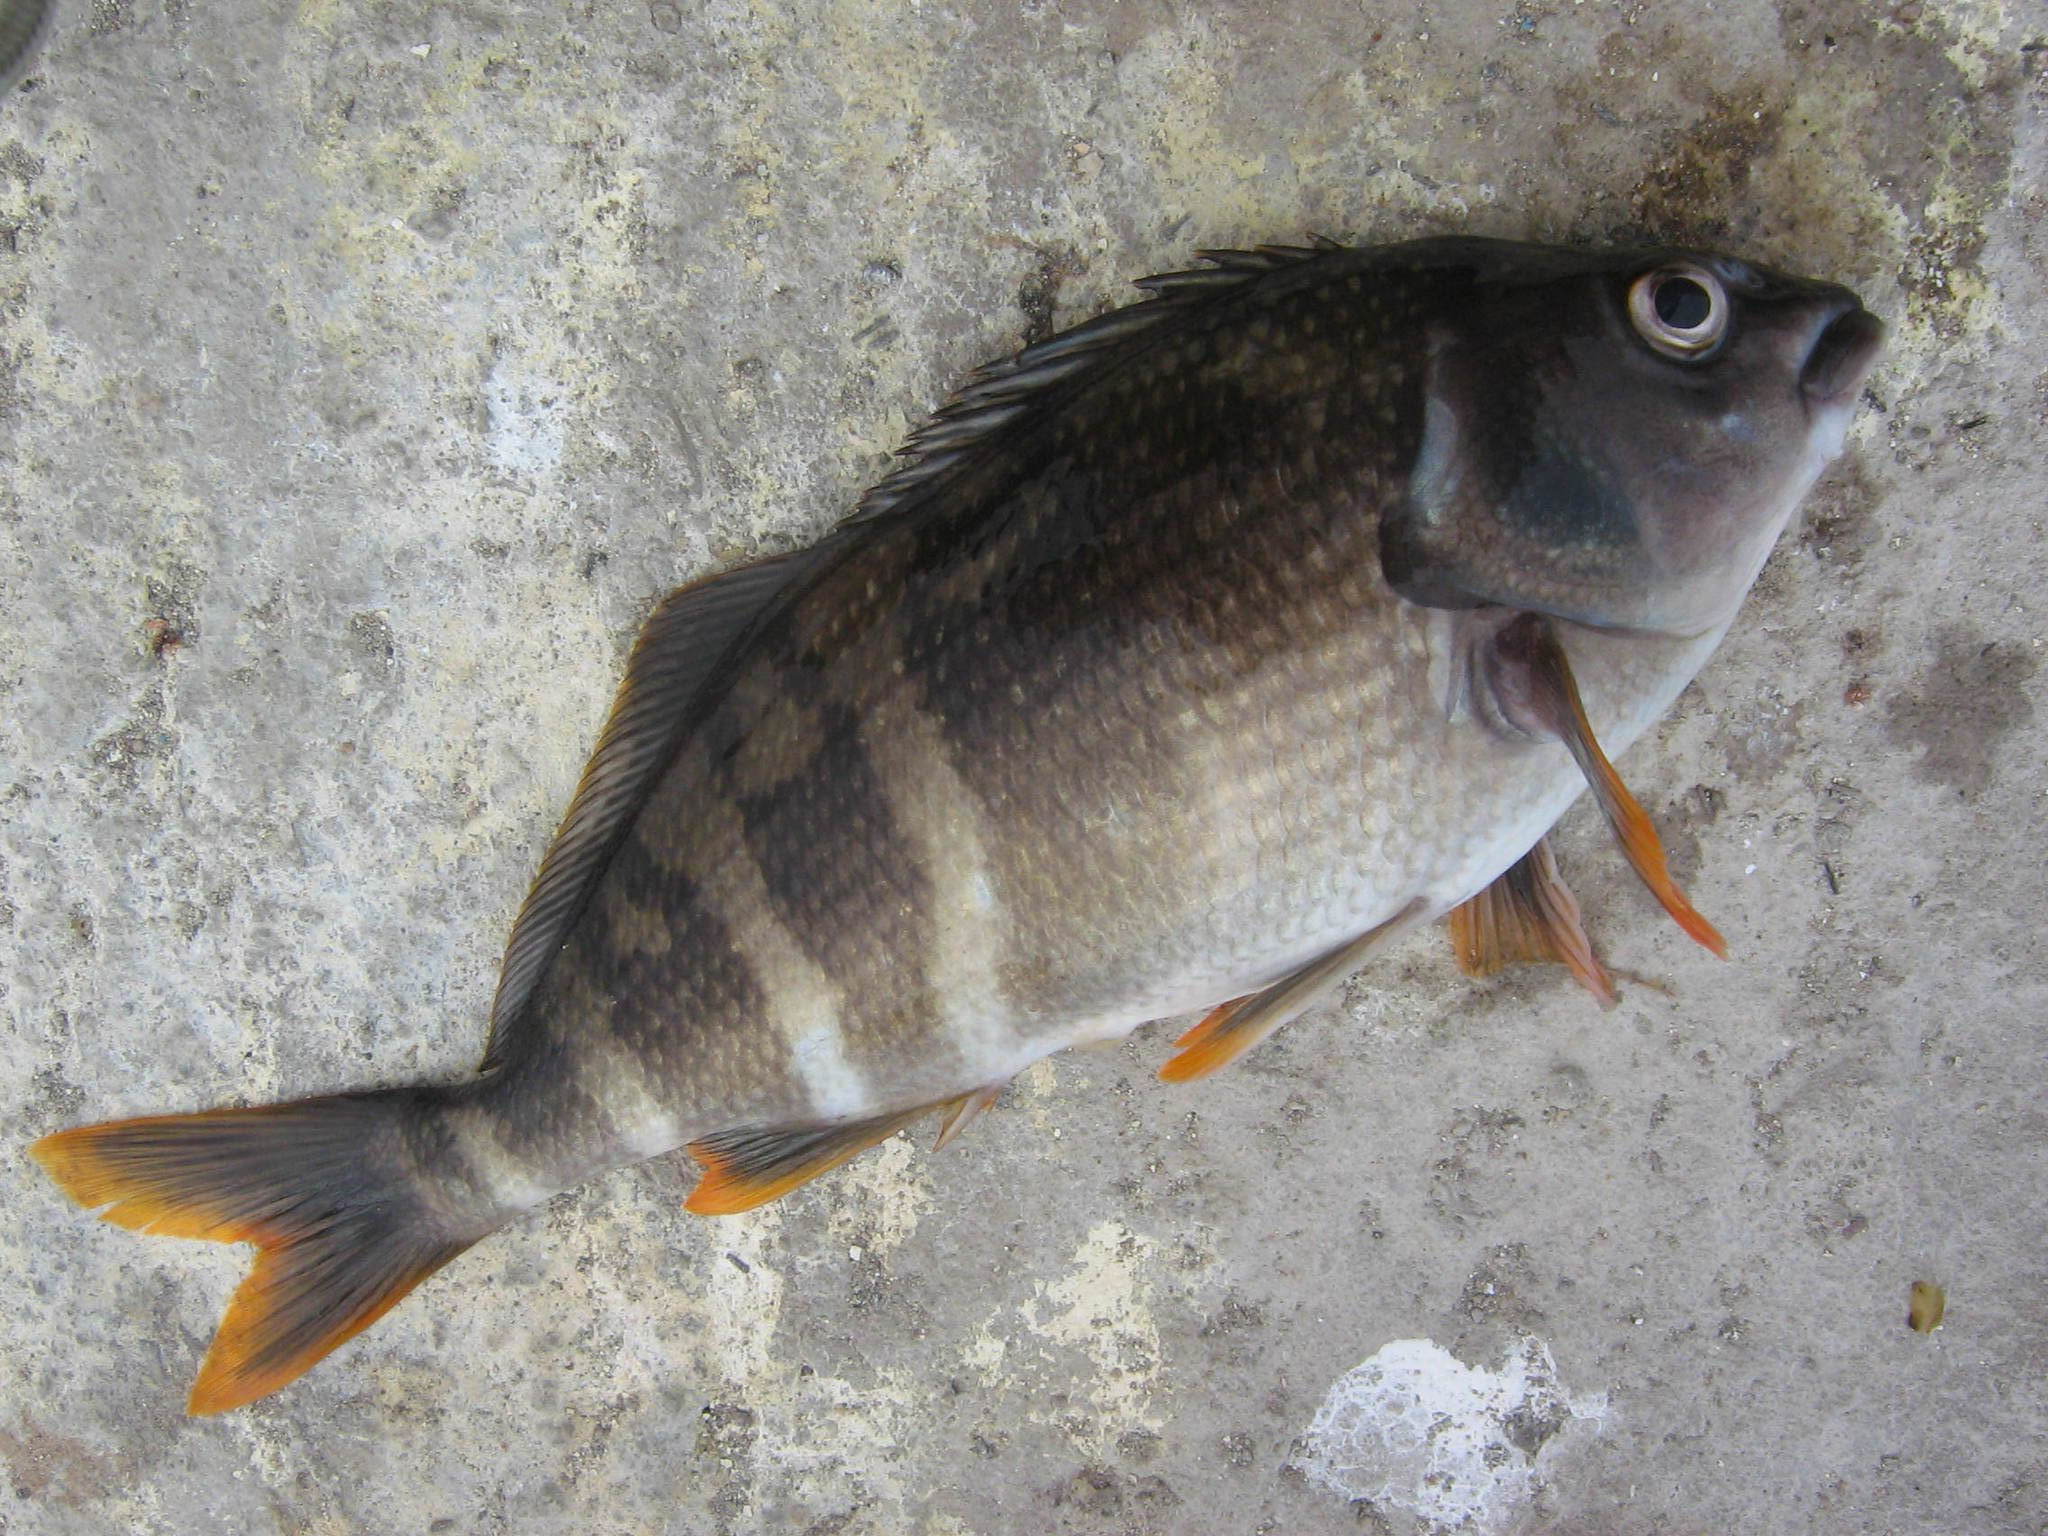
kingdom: Animalia
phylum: Chordata
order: Perciformes
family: Cheilodactylidae
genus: Cheilodactylus
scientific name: Cheilodactylus variegatus
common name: Peruvian morwong
